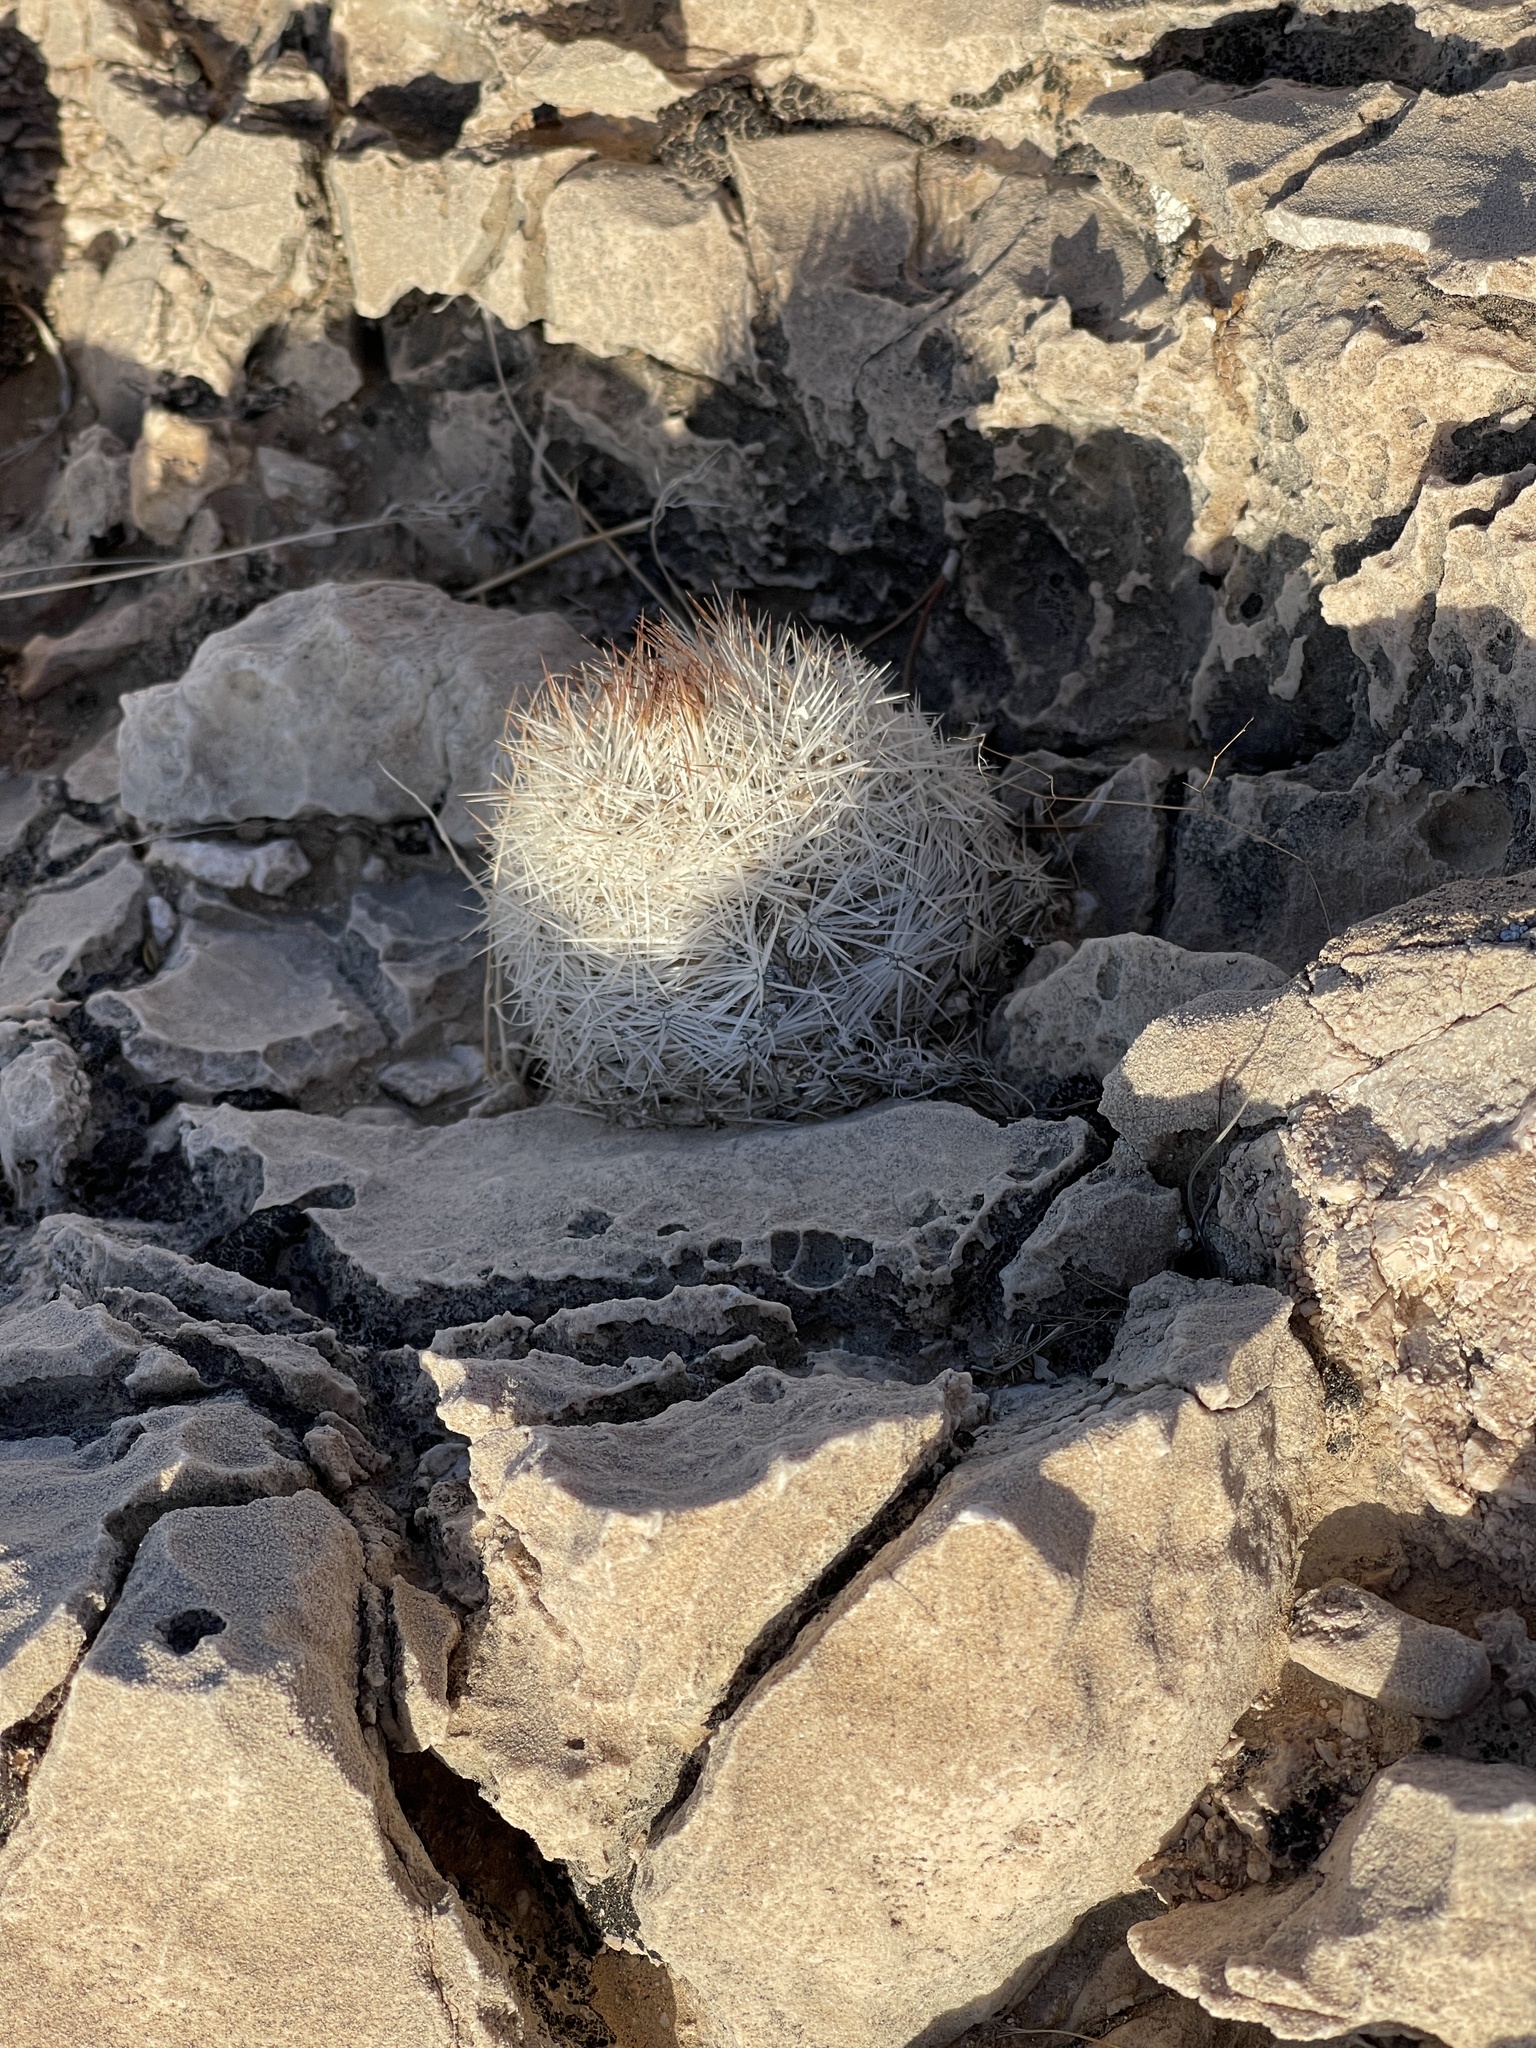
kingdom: Plantae
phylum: Tracheophyta
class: Magnoliopsida
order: Caryophyllales
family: Cactaceae
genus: Pelecyphora
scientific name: Pelecyphora dasyacantha
